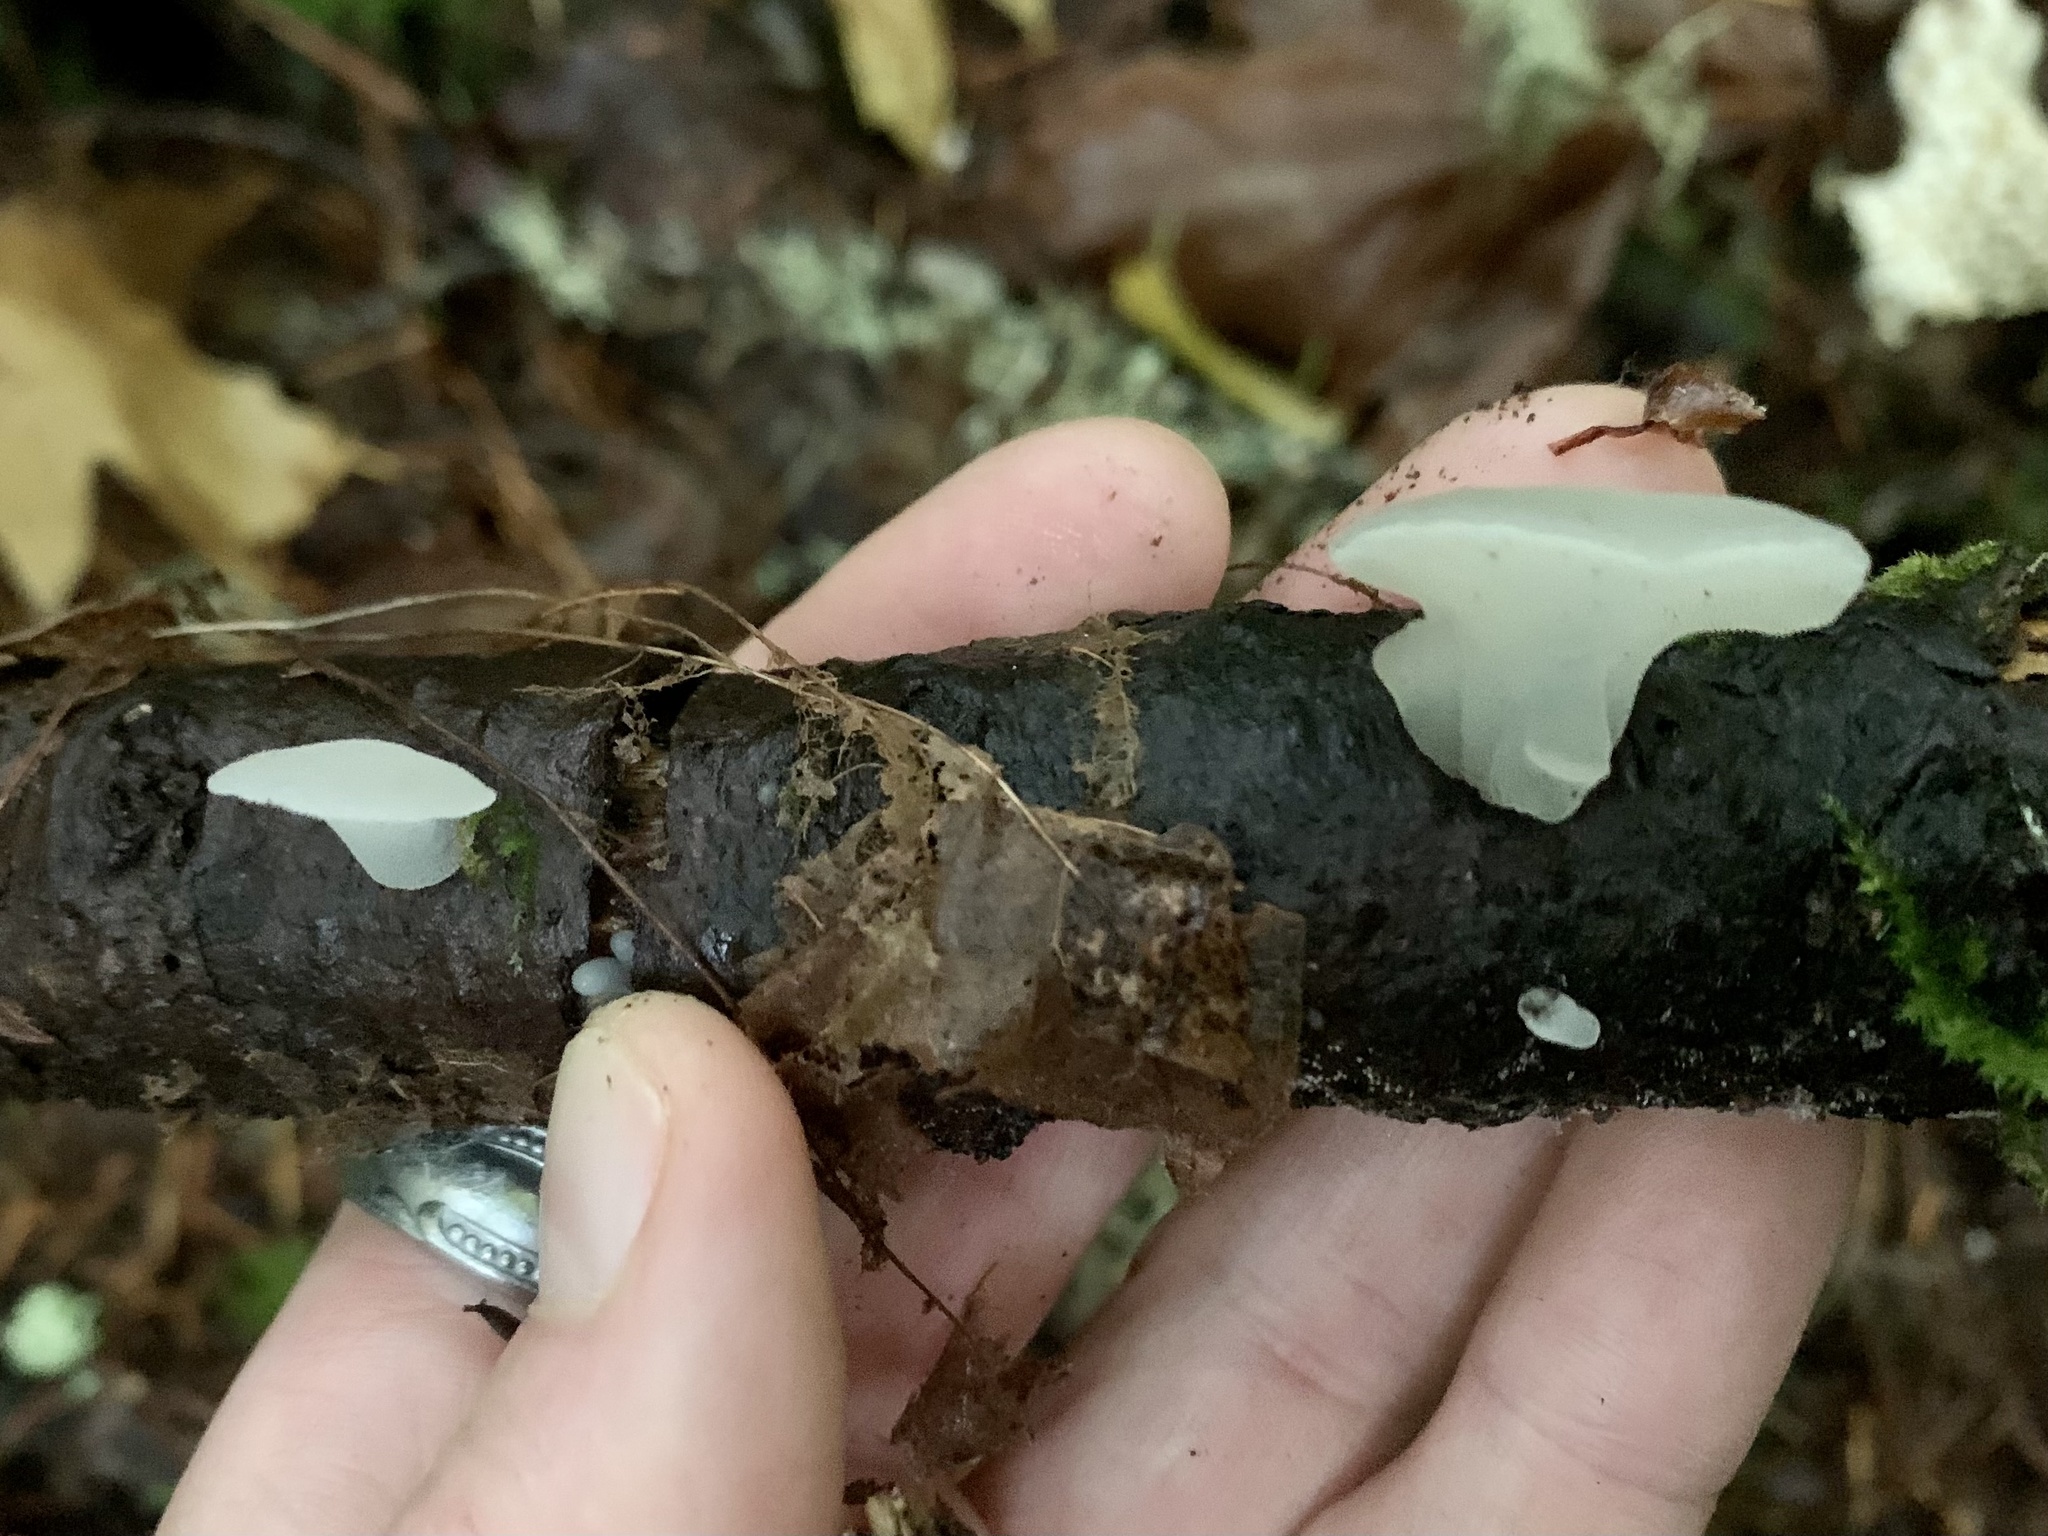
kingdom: Fungi
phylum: Basidiomycota
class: Agaricomycetes
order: Auriculariales
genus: Pseudohydnum
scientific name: Pseudohydnum gelatinosum
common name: Jelly tongue
